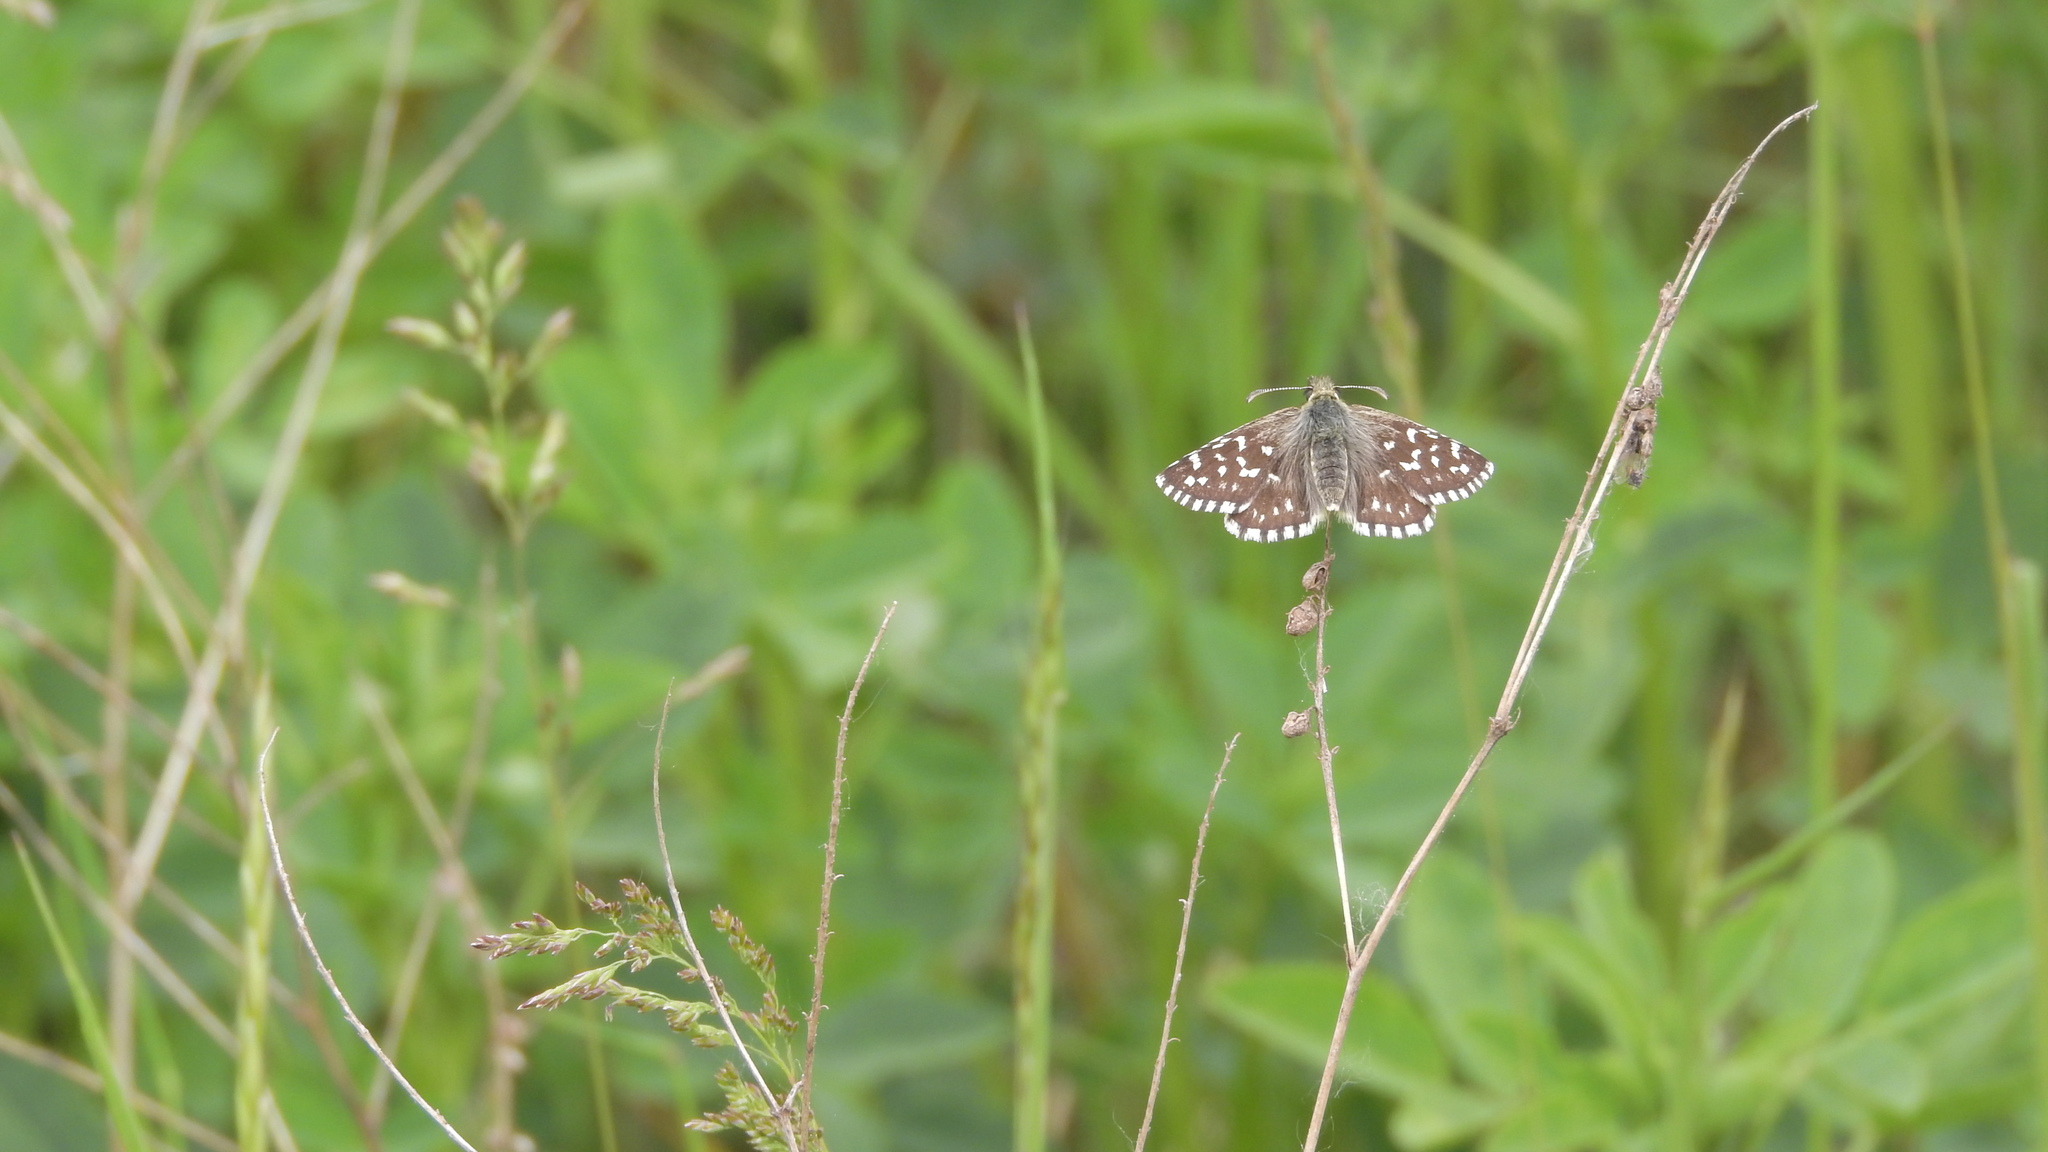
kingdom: Animalia
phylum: Arthropoda
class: Insecta
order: Lepidoptera
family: Hesperiidae
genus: Pyrgus
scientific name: Pyrgus malvae
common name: Grizzled skipper
